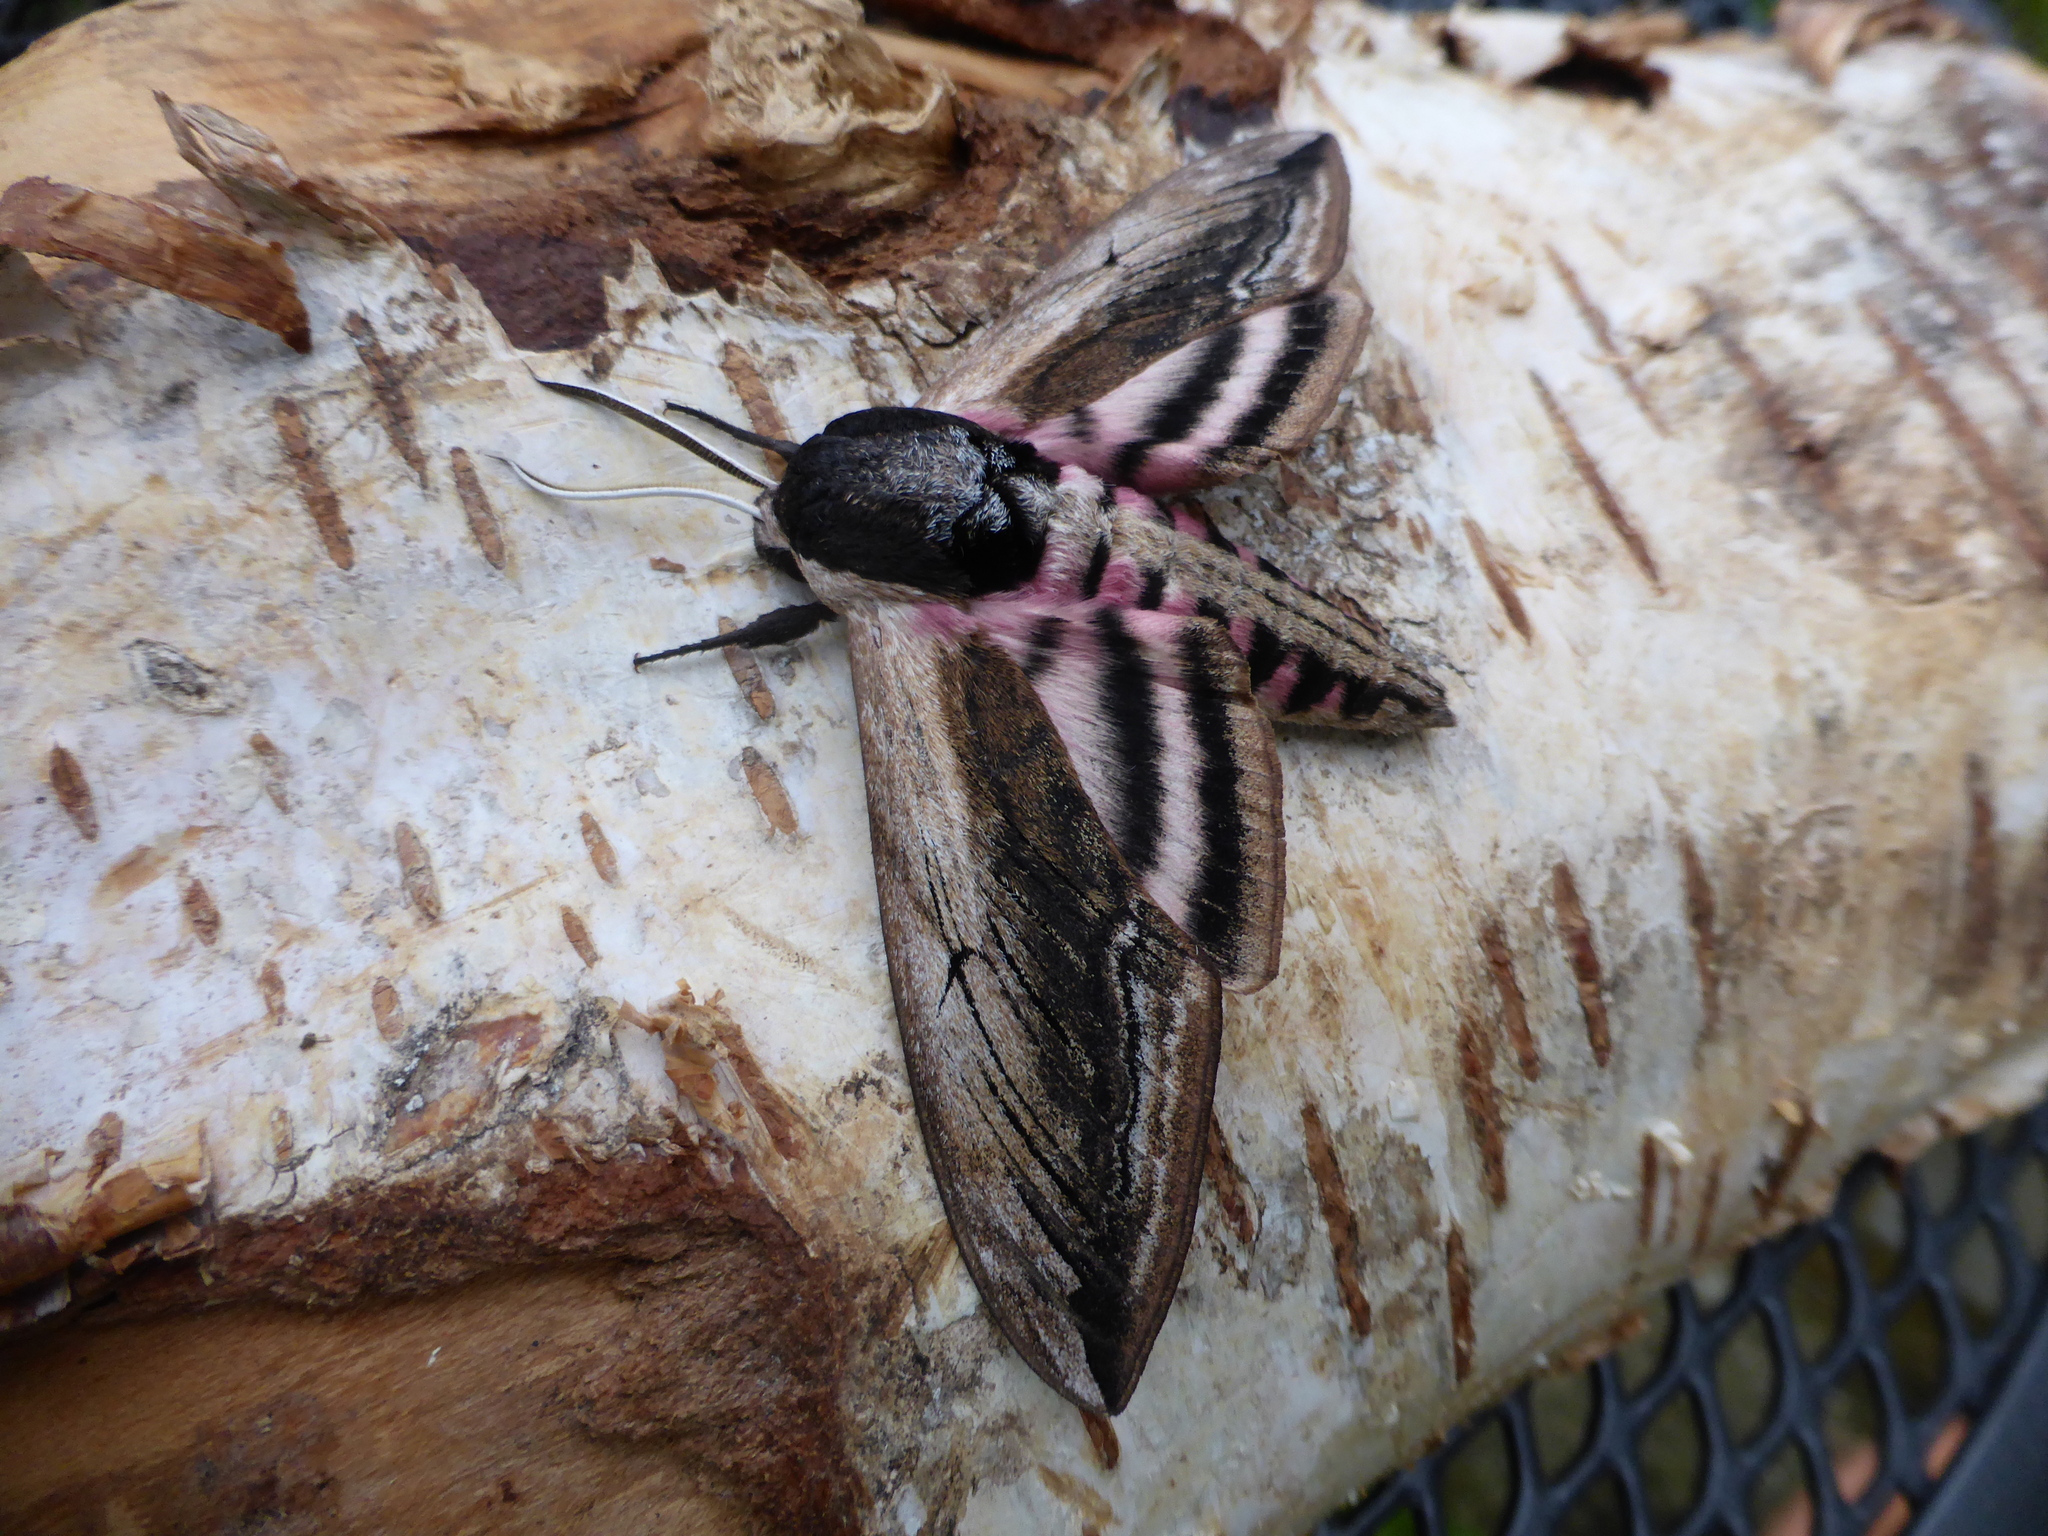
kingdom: Animalia
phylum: Arthropoda
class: Insecta
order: Lepidoptera
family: Sphingidae
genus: Sphinx
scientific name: Sphinx ligustri
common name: Privet hawk-moth
